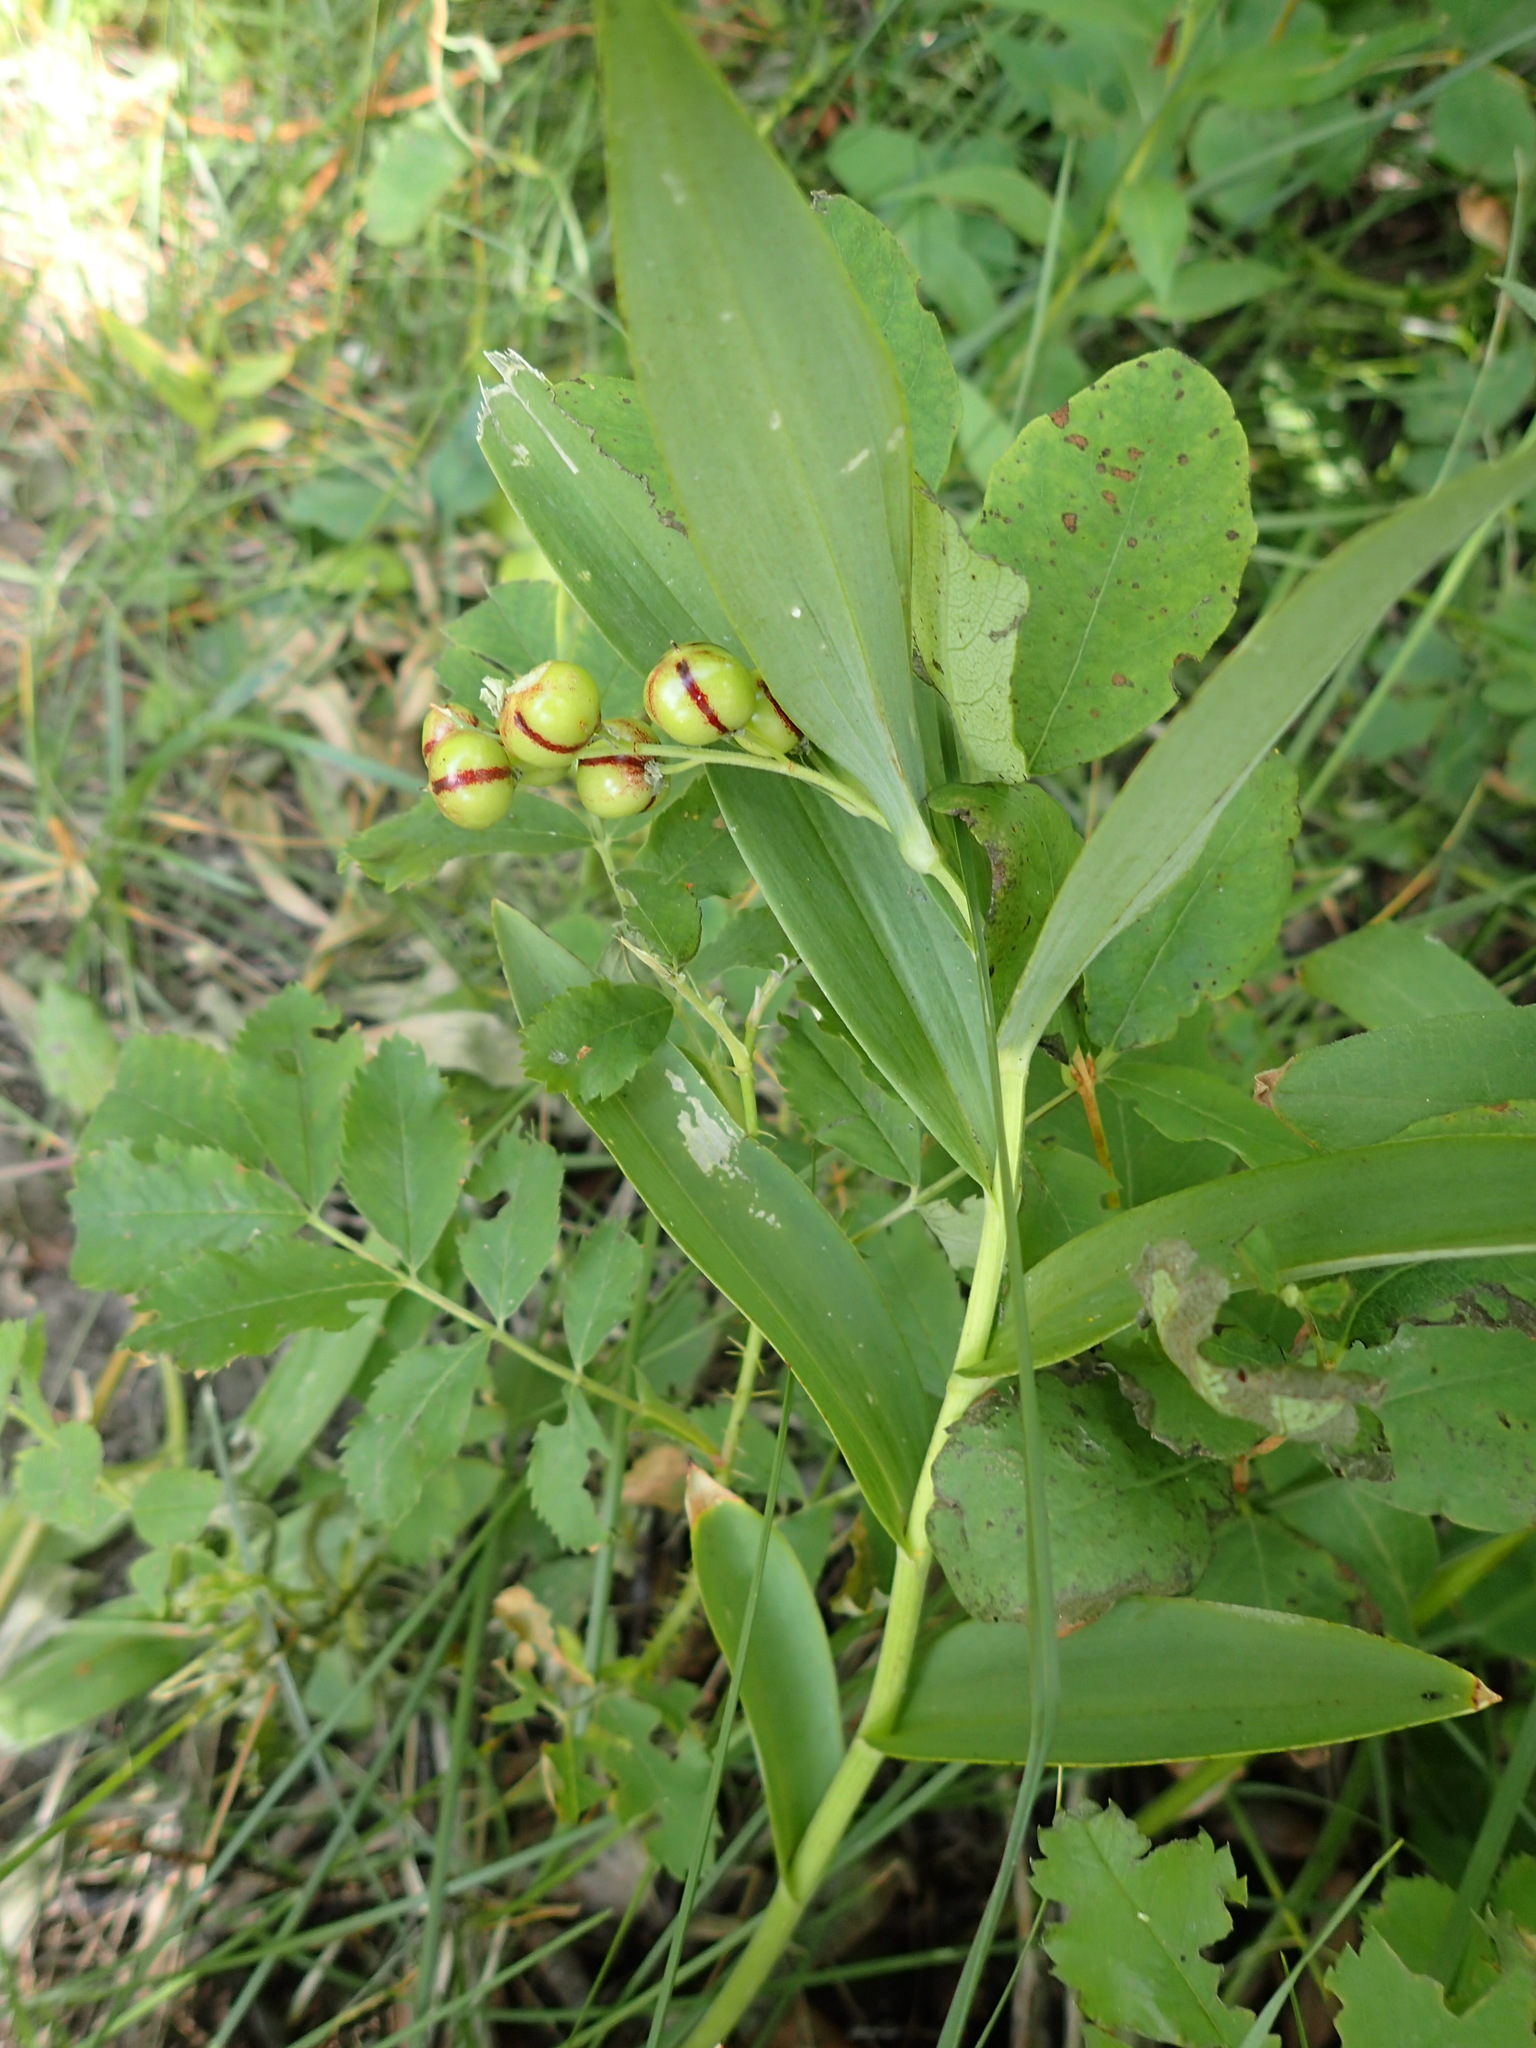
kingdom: Plantae
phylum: Tracheophyta
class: Liliopsida
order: Asparagales
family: Asparagaceae
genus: Maianthemum
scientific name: Maianthemum stellatum
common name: Little false solomon's seal
